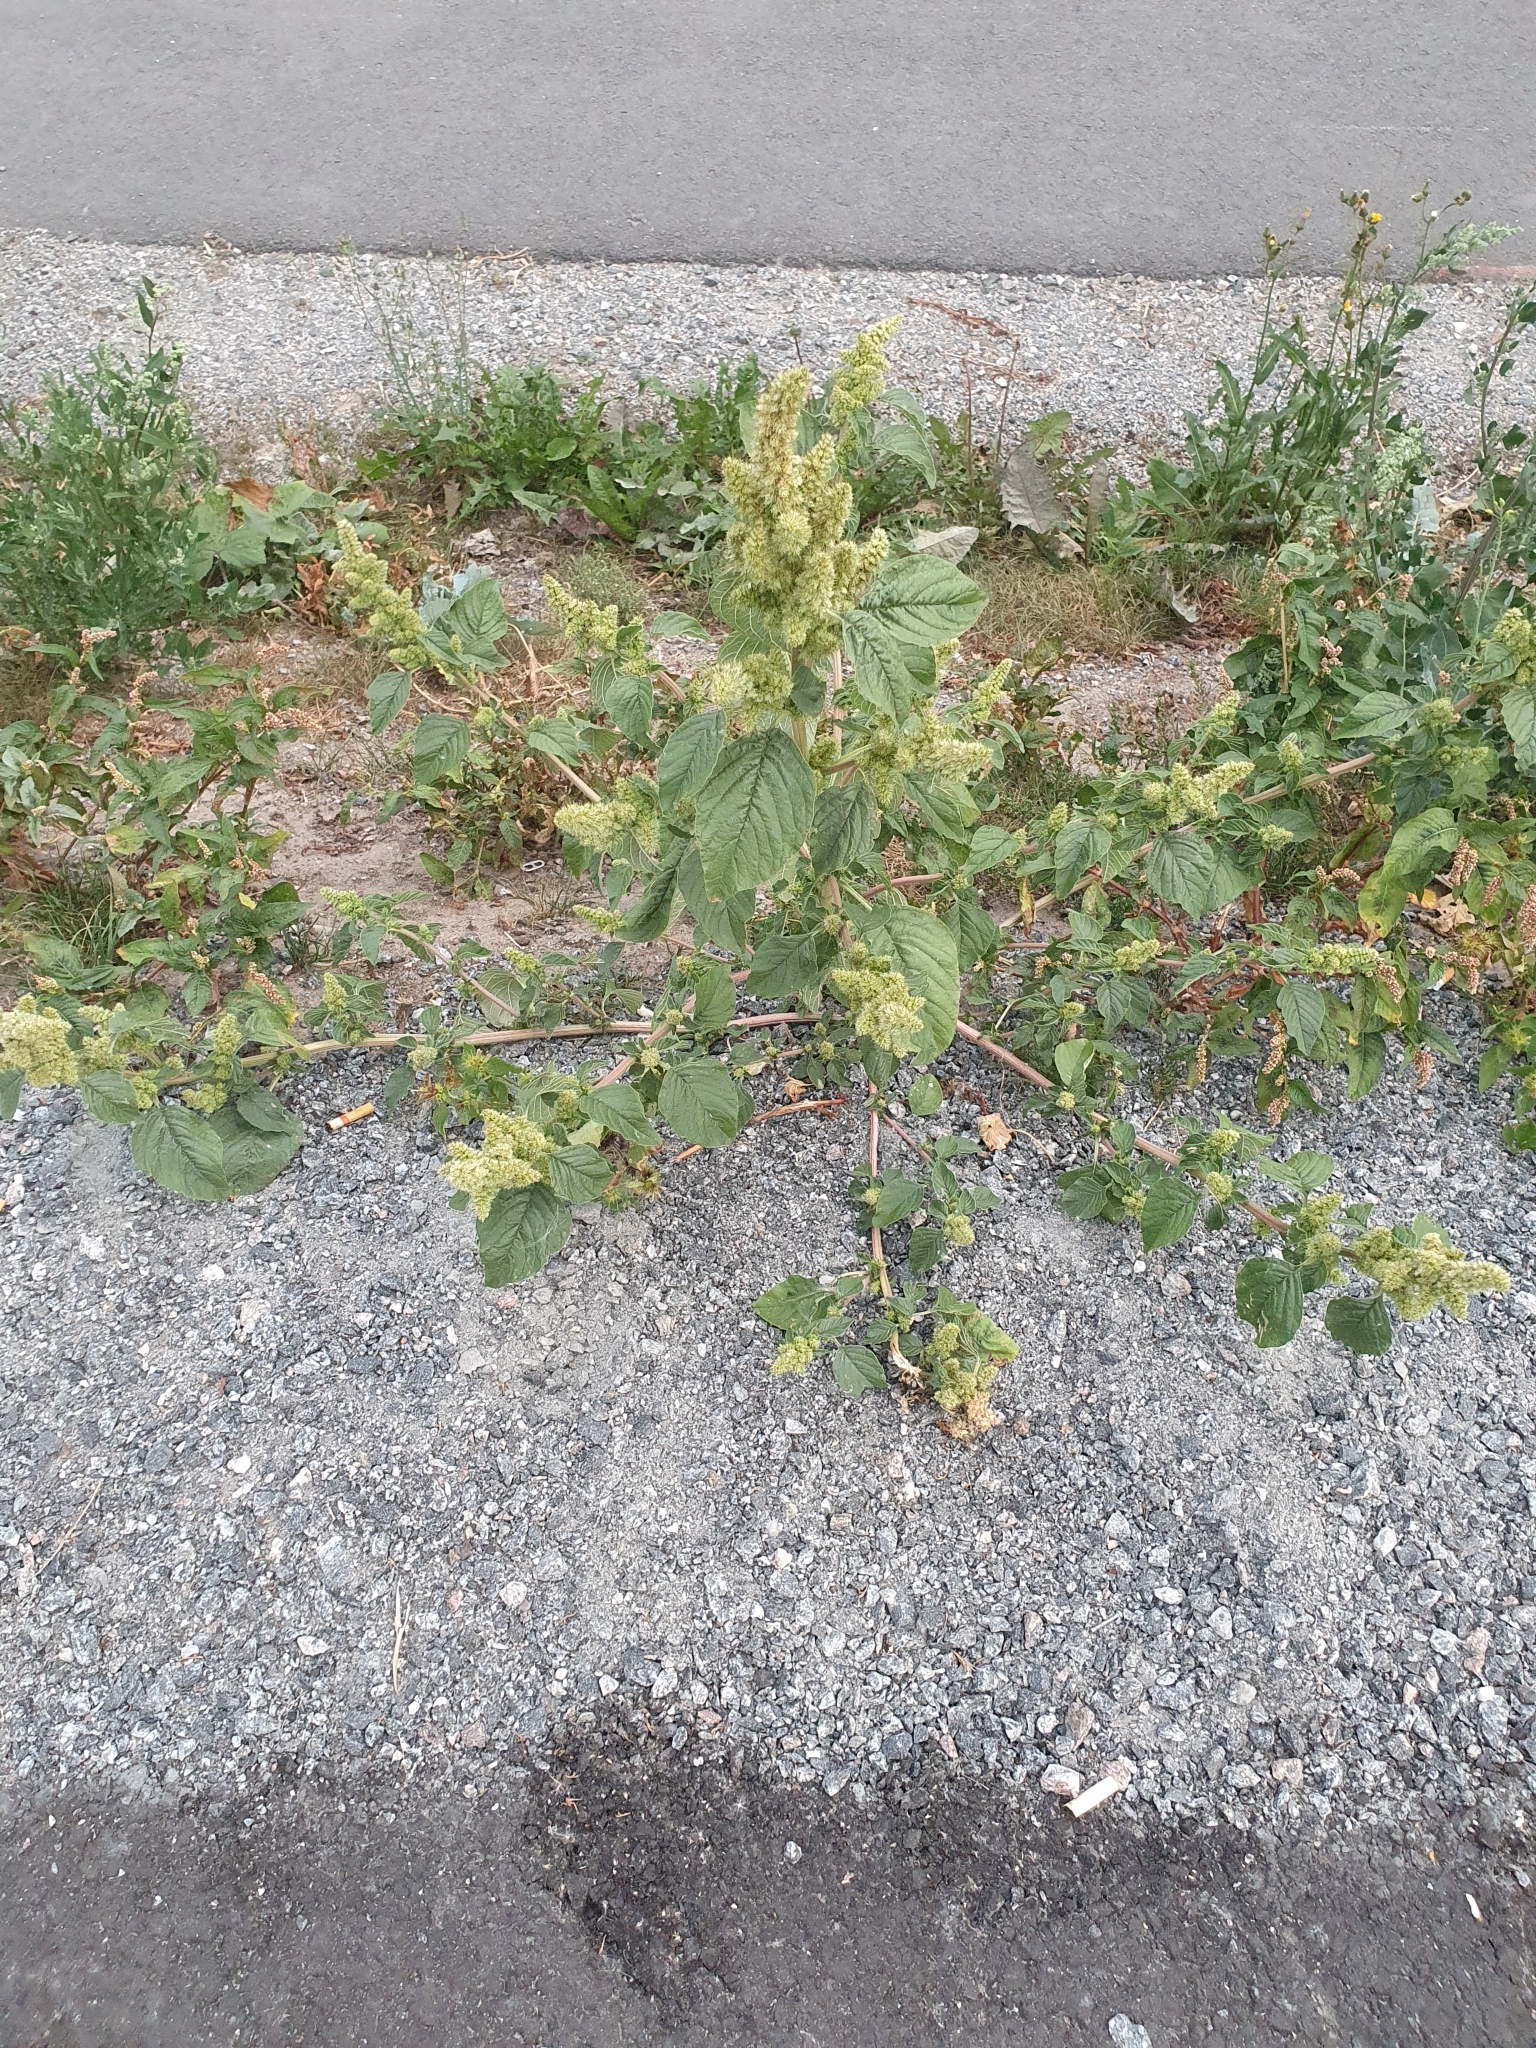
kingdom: Plantae
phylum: Tracheophyta
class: Magnoliopsida
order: Caryophyllales
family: Amaranthaceae
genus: Amaranthus
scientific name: Amaranthus retroflexus
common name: Redroot amaranth
